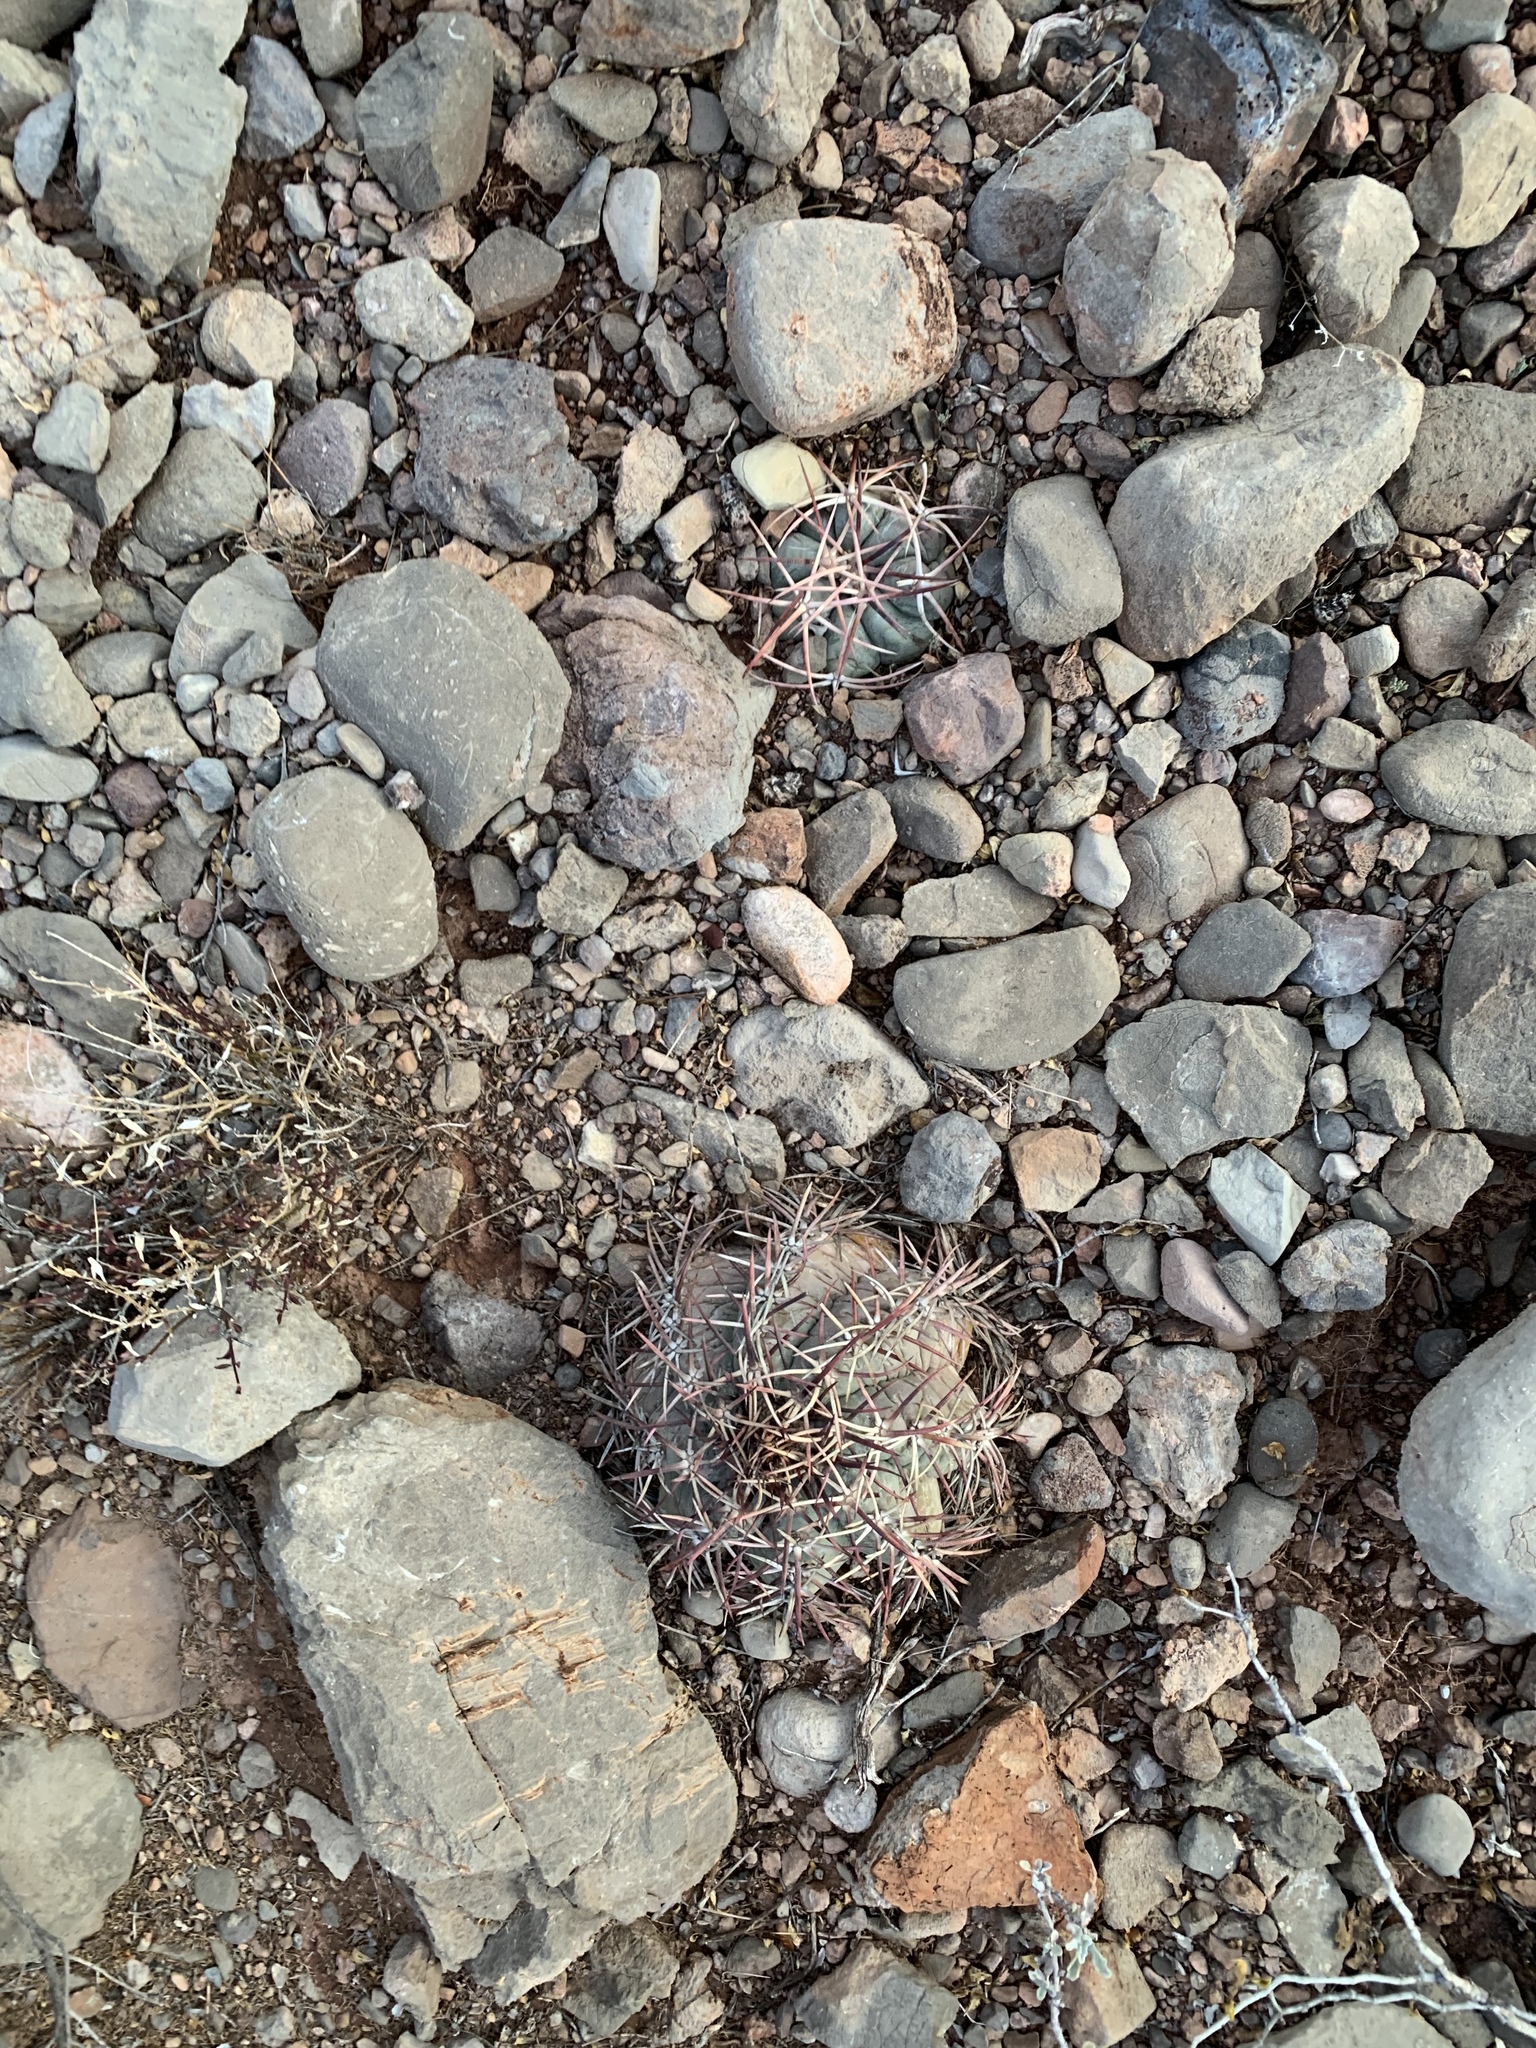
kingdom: Plantae
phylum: Tracheophyta
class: Magnoliopsida
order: Caryophyllales
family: Cactaceae
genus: Echinocactus
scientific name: Echinocactus horizonthalonius
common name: Devilshead
